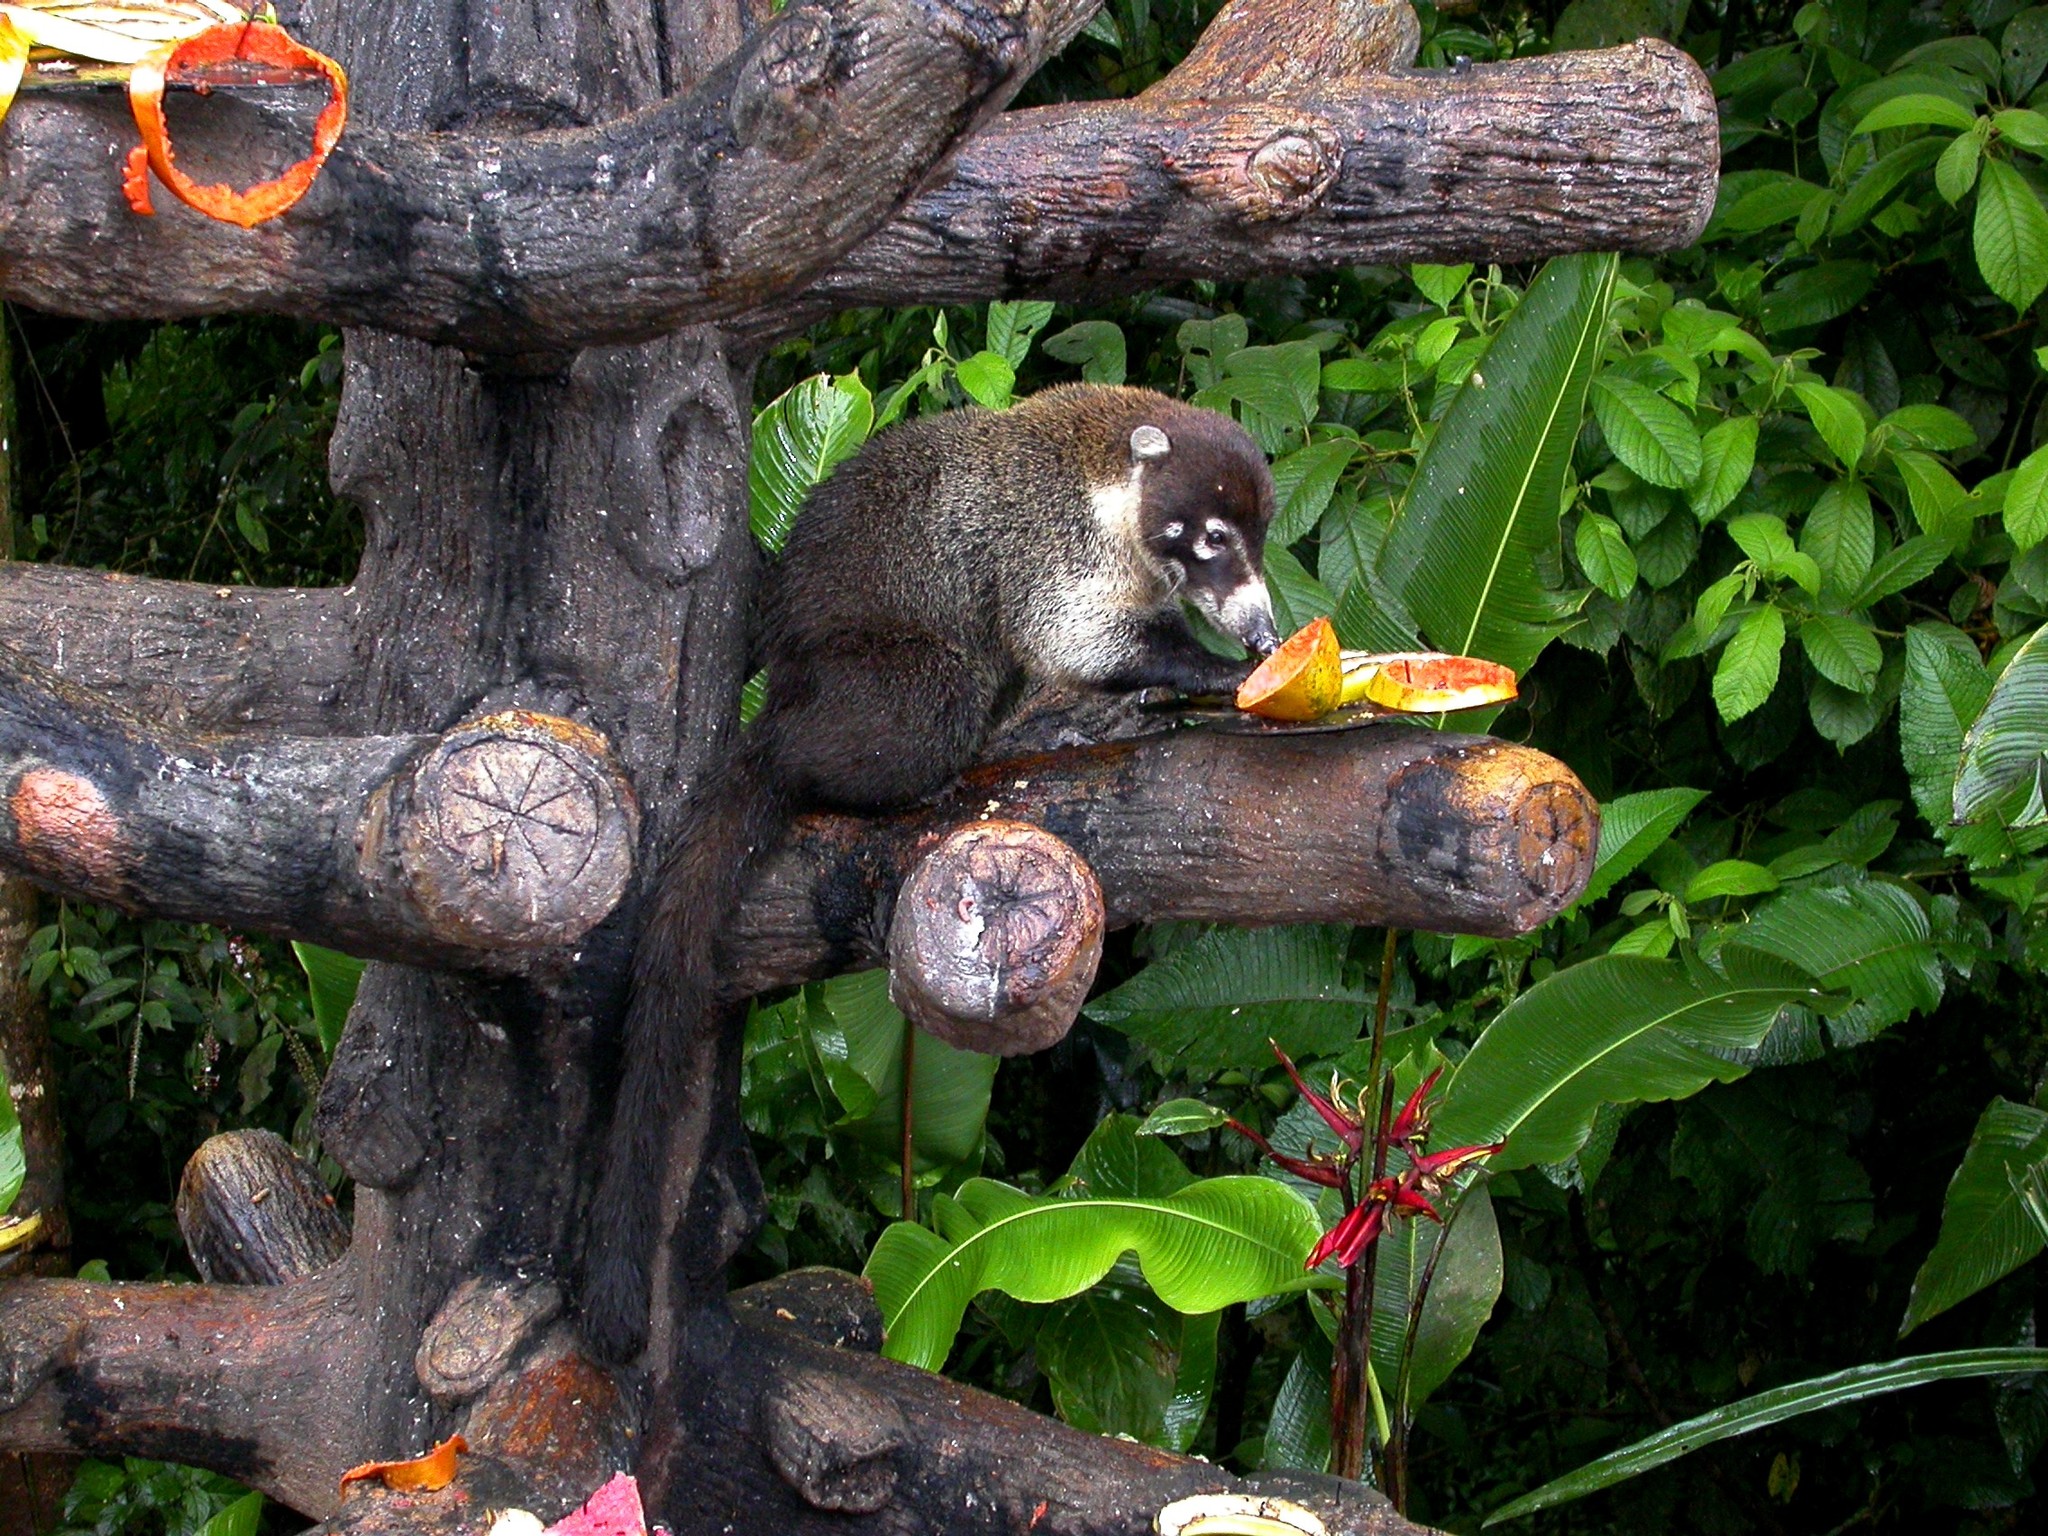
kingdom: Animalia
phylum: Chordata
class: Mammalia
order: Carnivora
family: Procyonidae
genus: Nasua
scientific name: Nasua narica
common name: White-nosed coati
